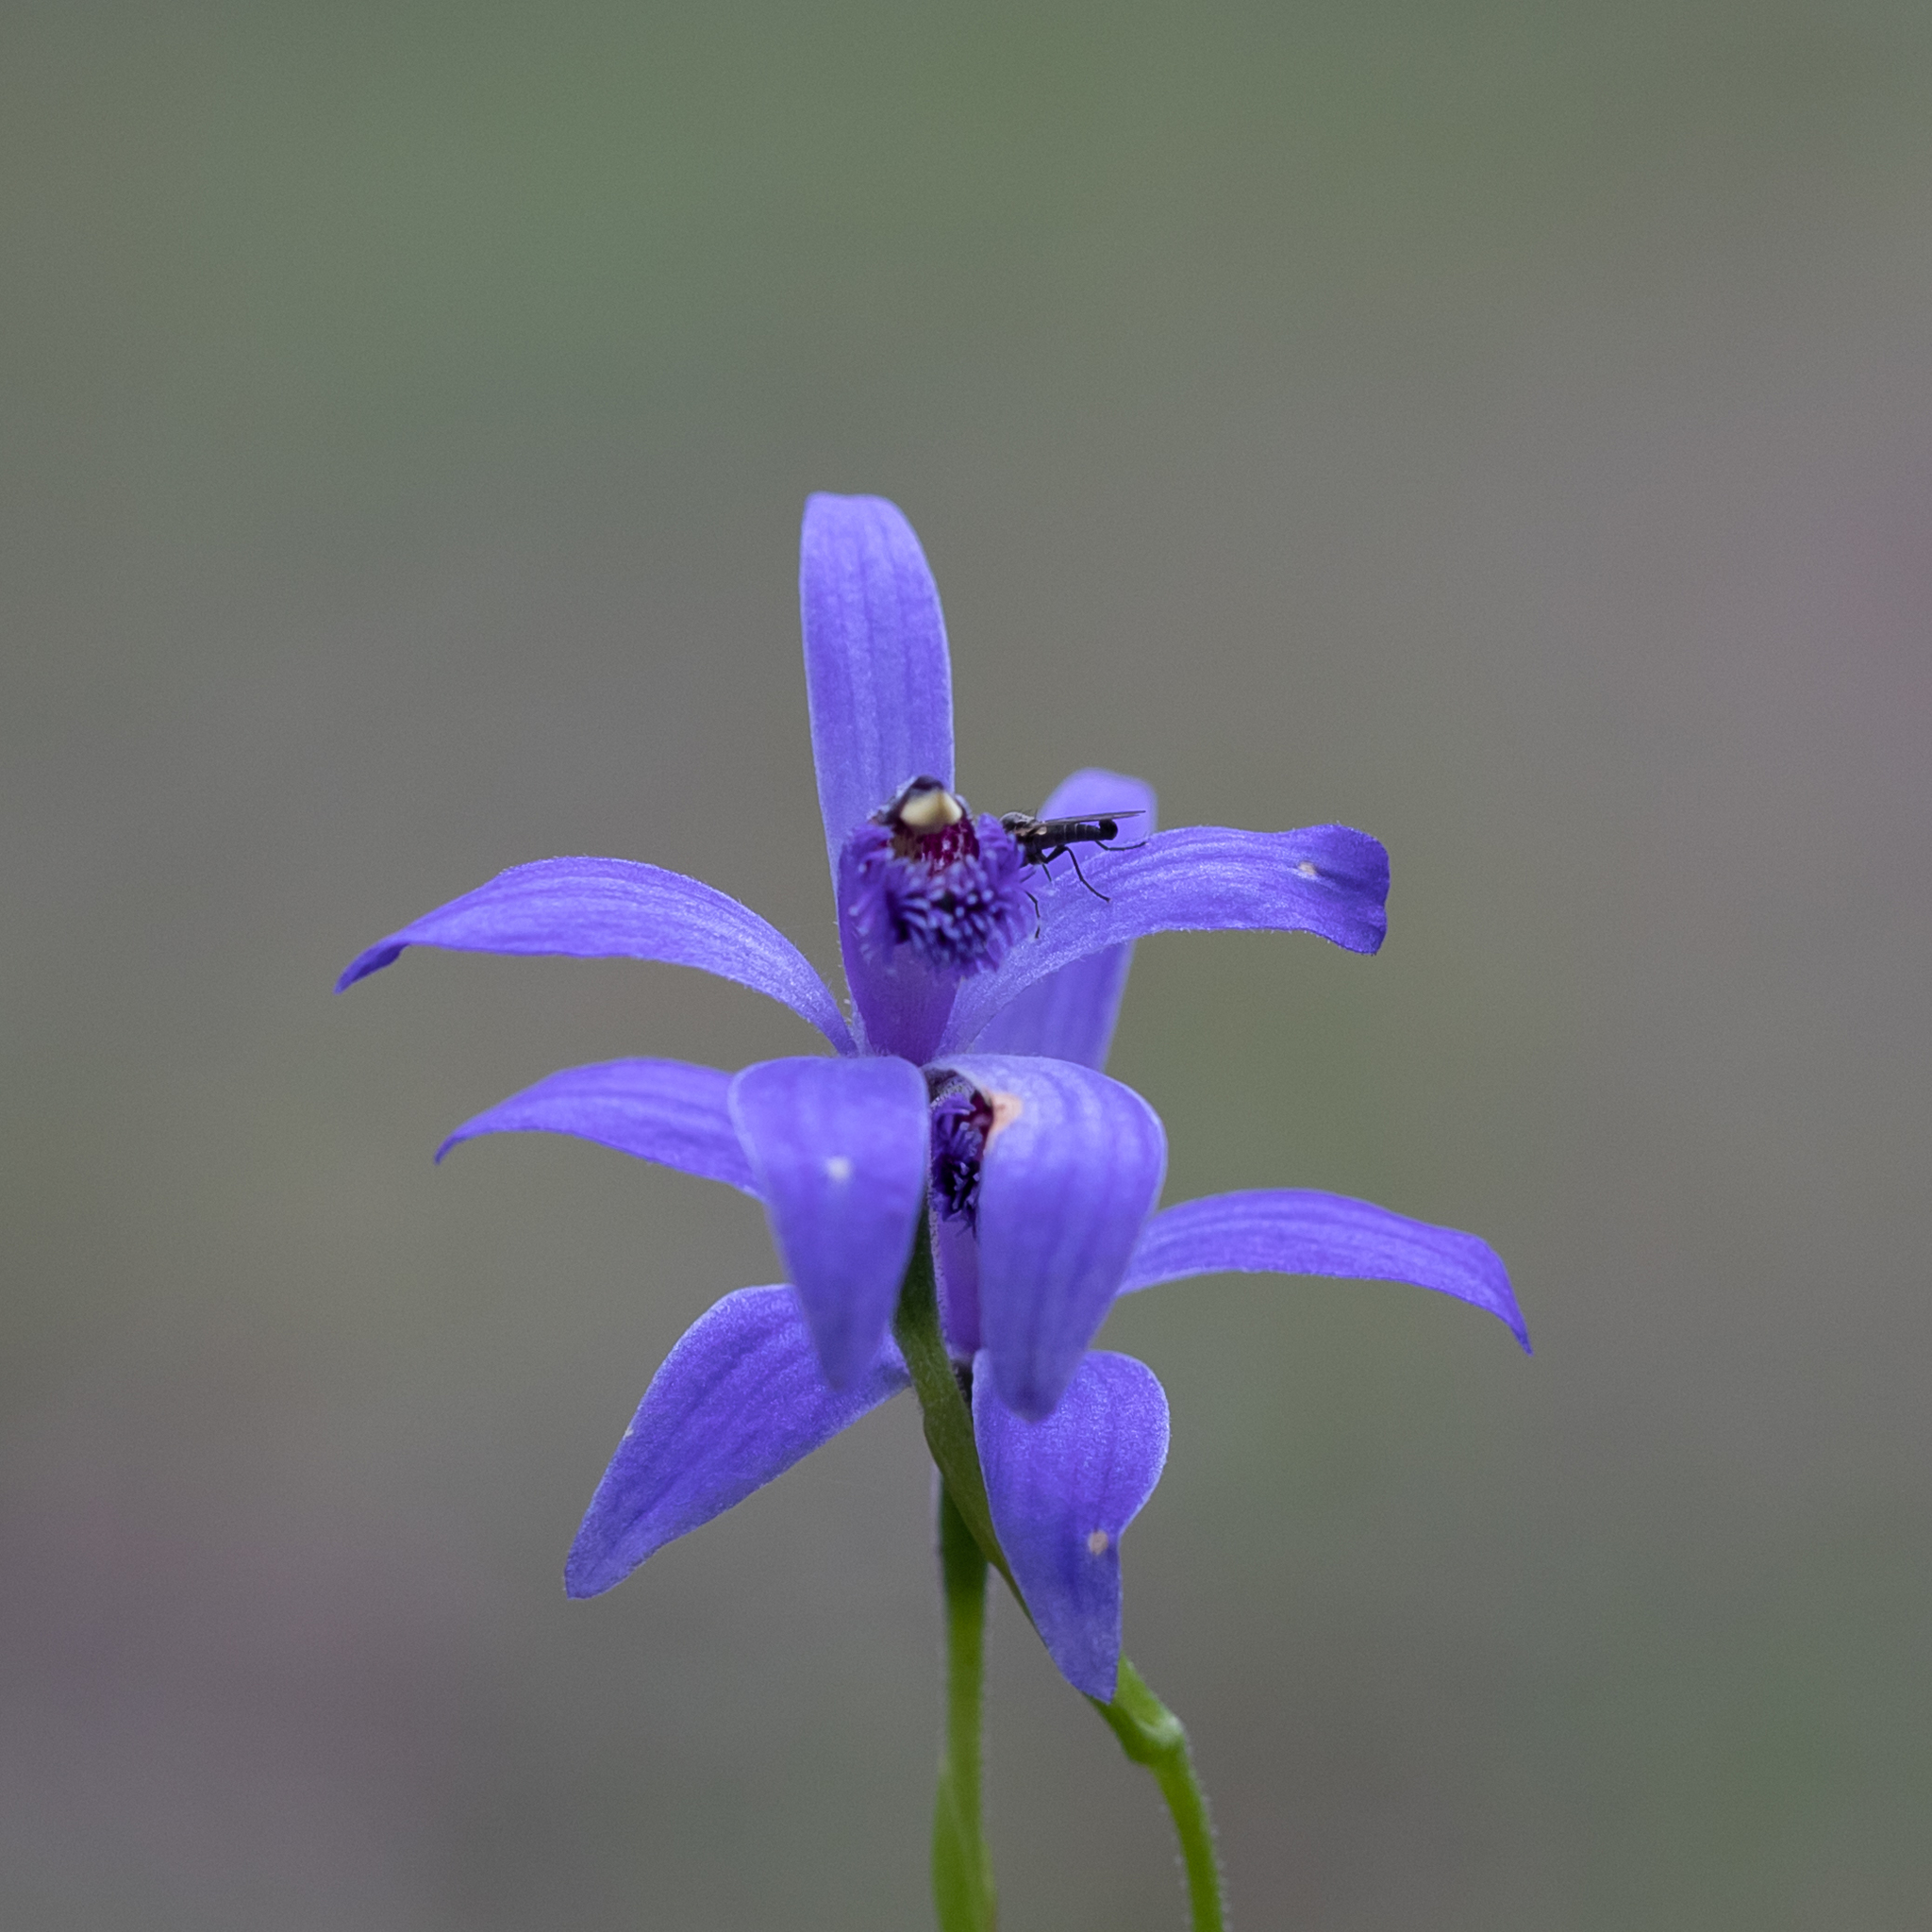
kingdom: Plantae
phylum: Tracheophyta
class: Liliopsida
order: Asparagales
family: Orchidaceae
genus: Pheladenia
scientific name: Pheladenia deformis
